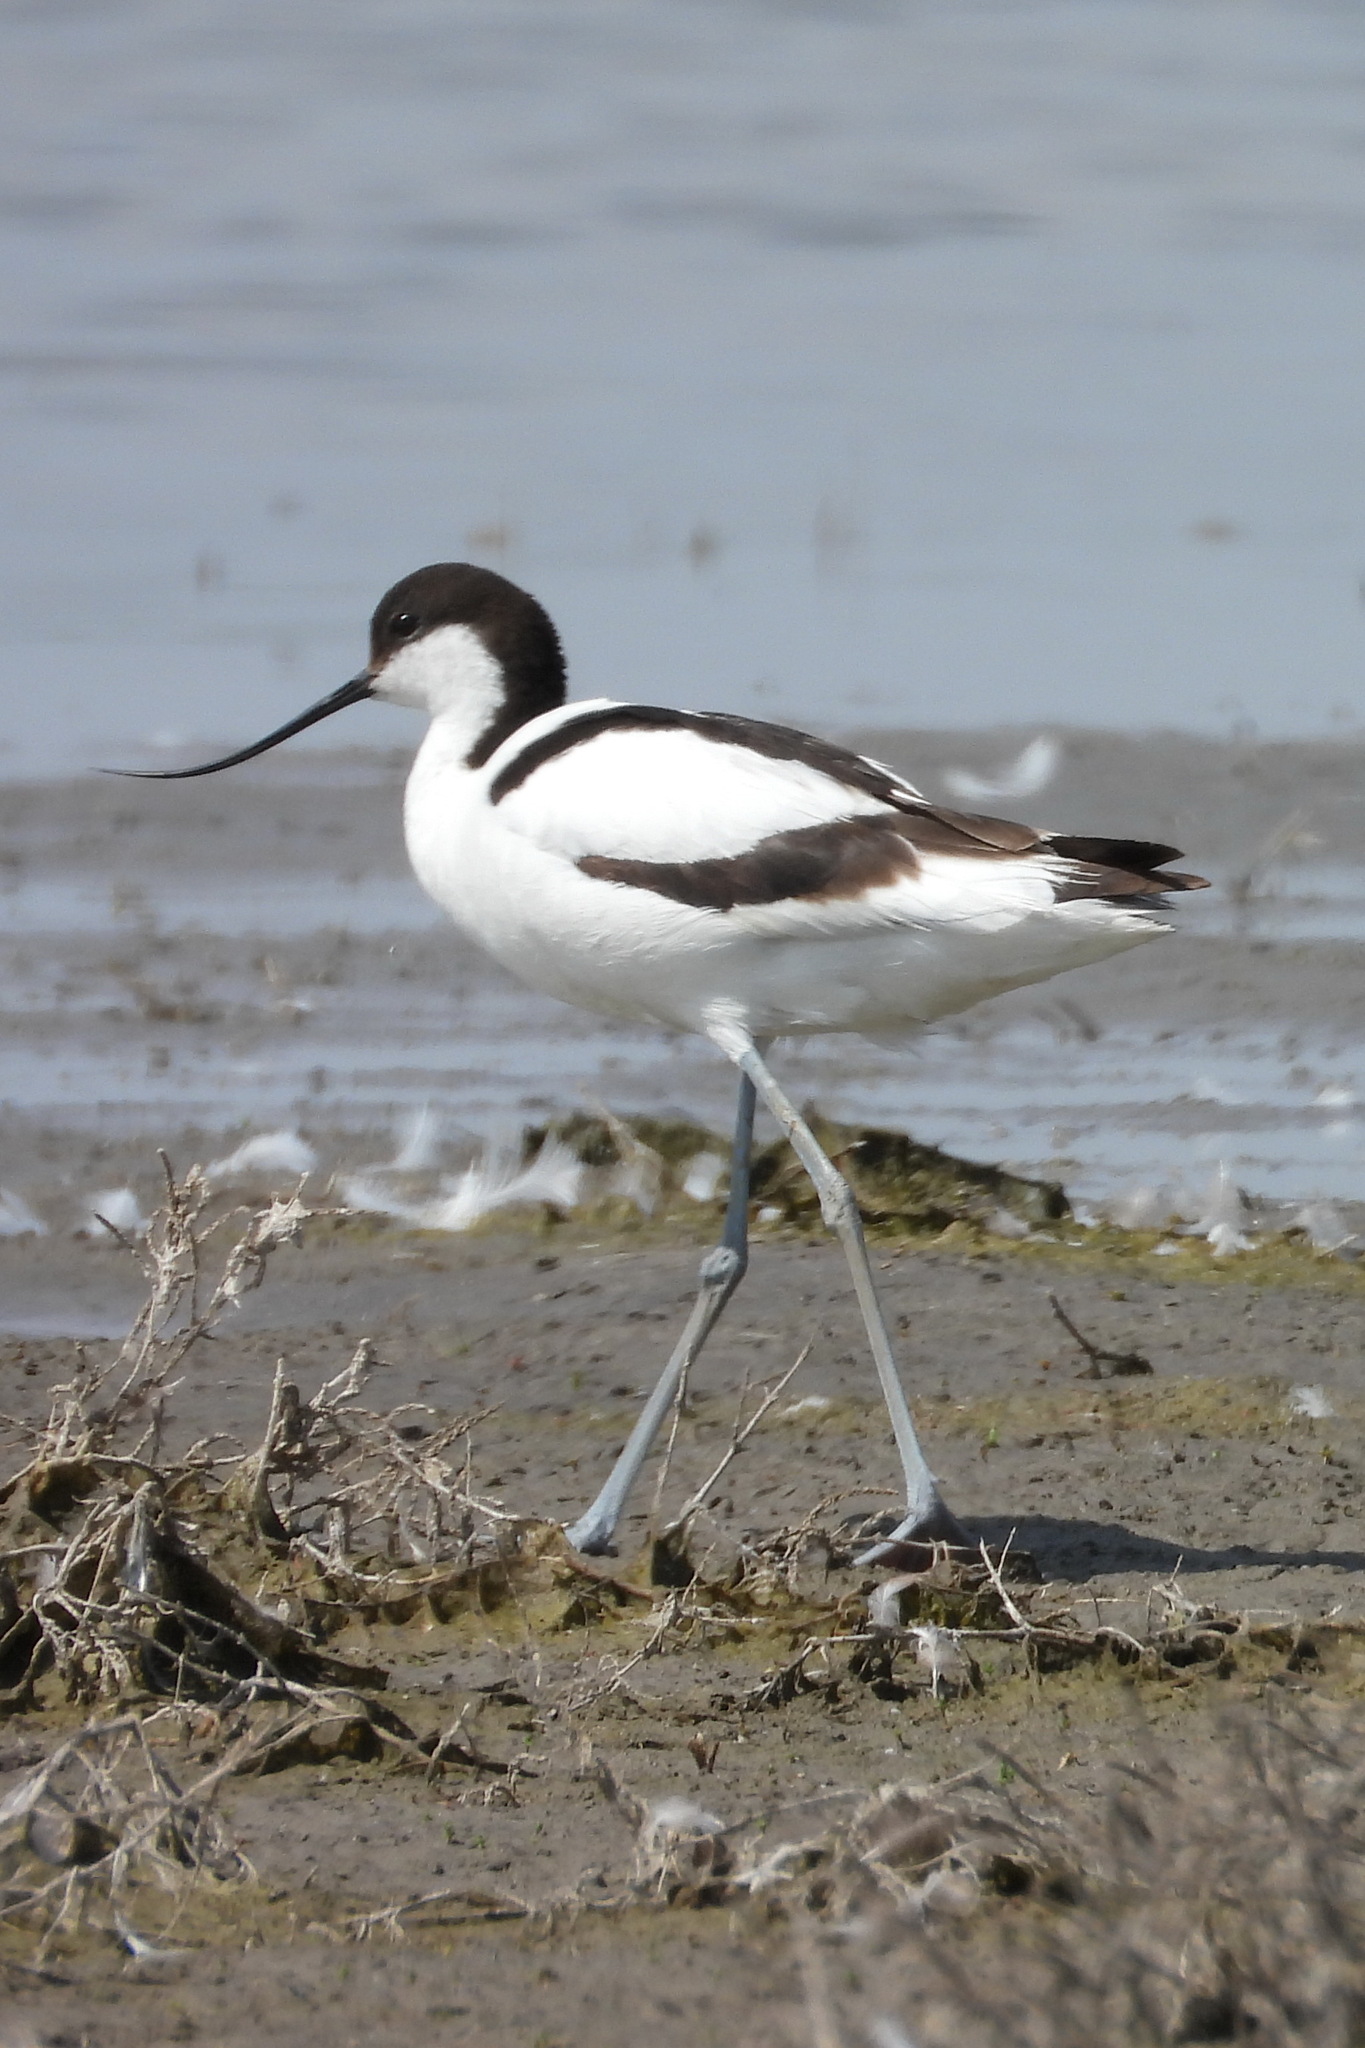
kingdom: Animalia
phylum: Chordata
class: Aves
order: Charadriiformes
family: Recurvirostridae
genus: Recurvirostra
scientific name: Recurvirostra avosetta
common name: Pied avocet
